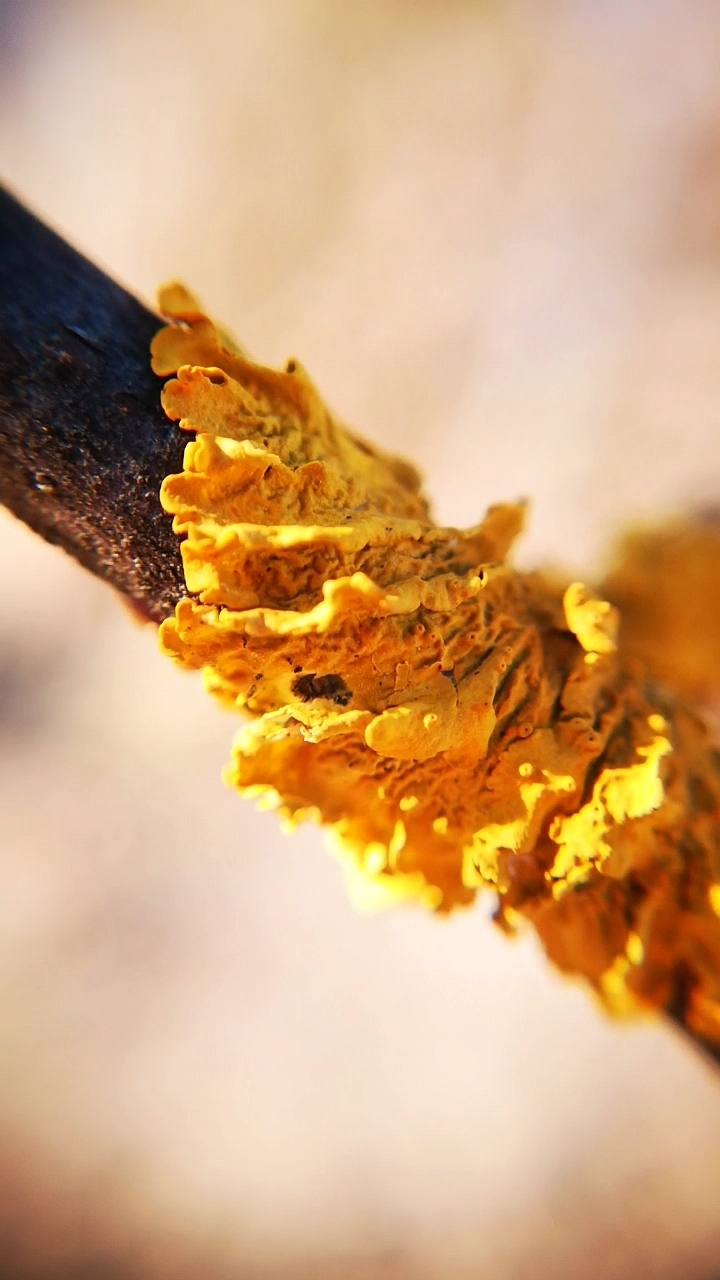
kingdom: Fungi
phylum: Ascomycota
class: Lecanoromycetes
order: Teloschistales
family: Teloschistaceae
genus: Xanthoria
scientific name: Xanthoria parietina
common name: Common orange lichen
